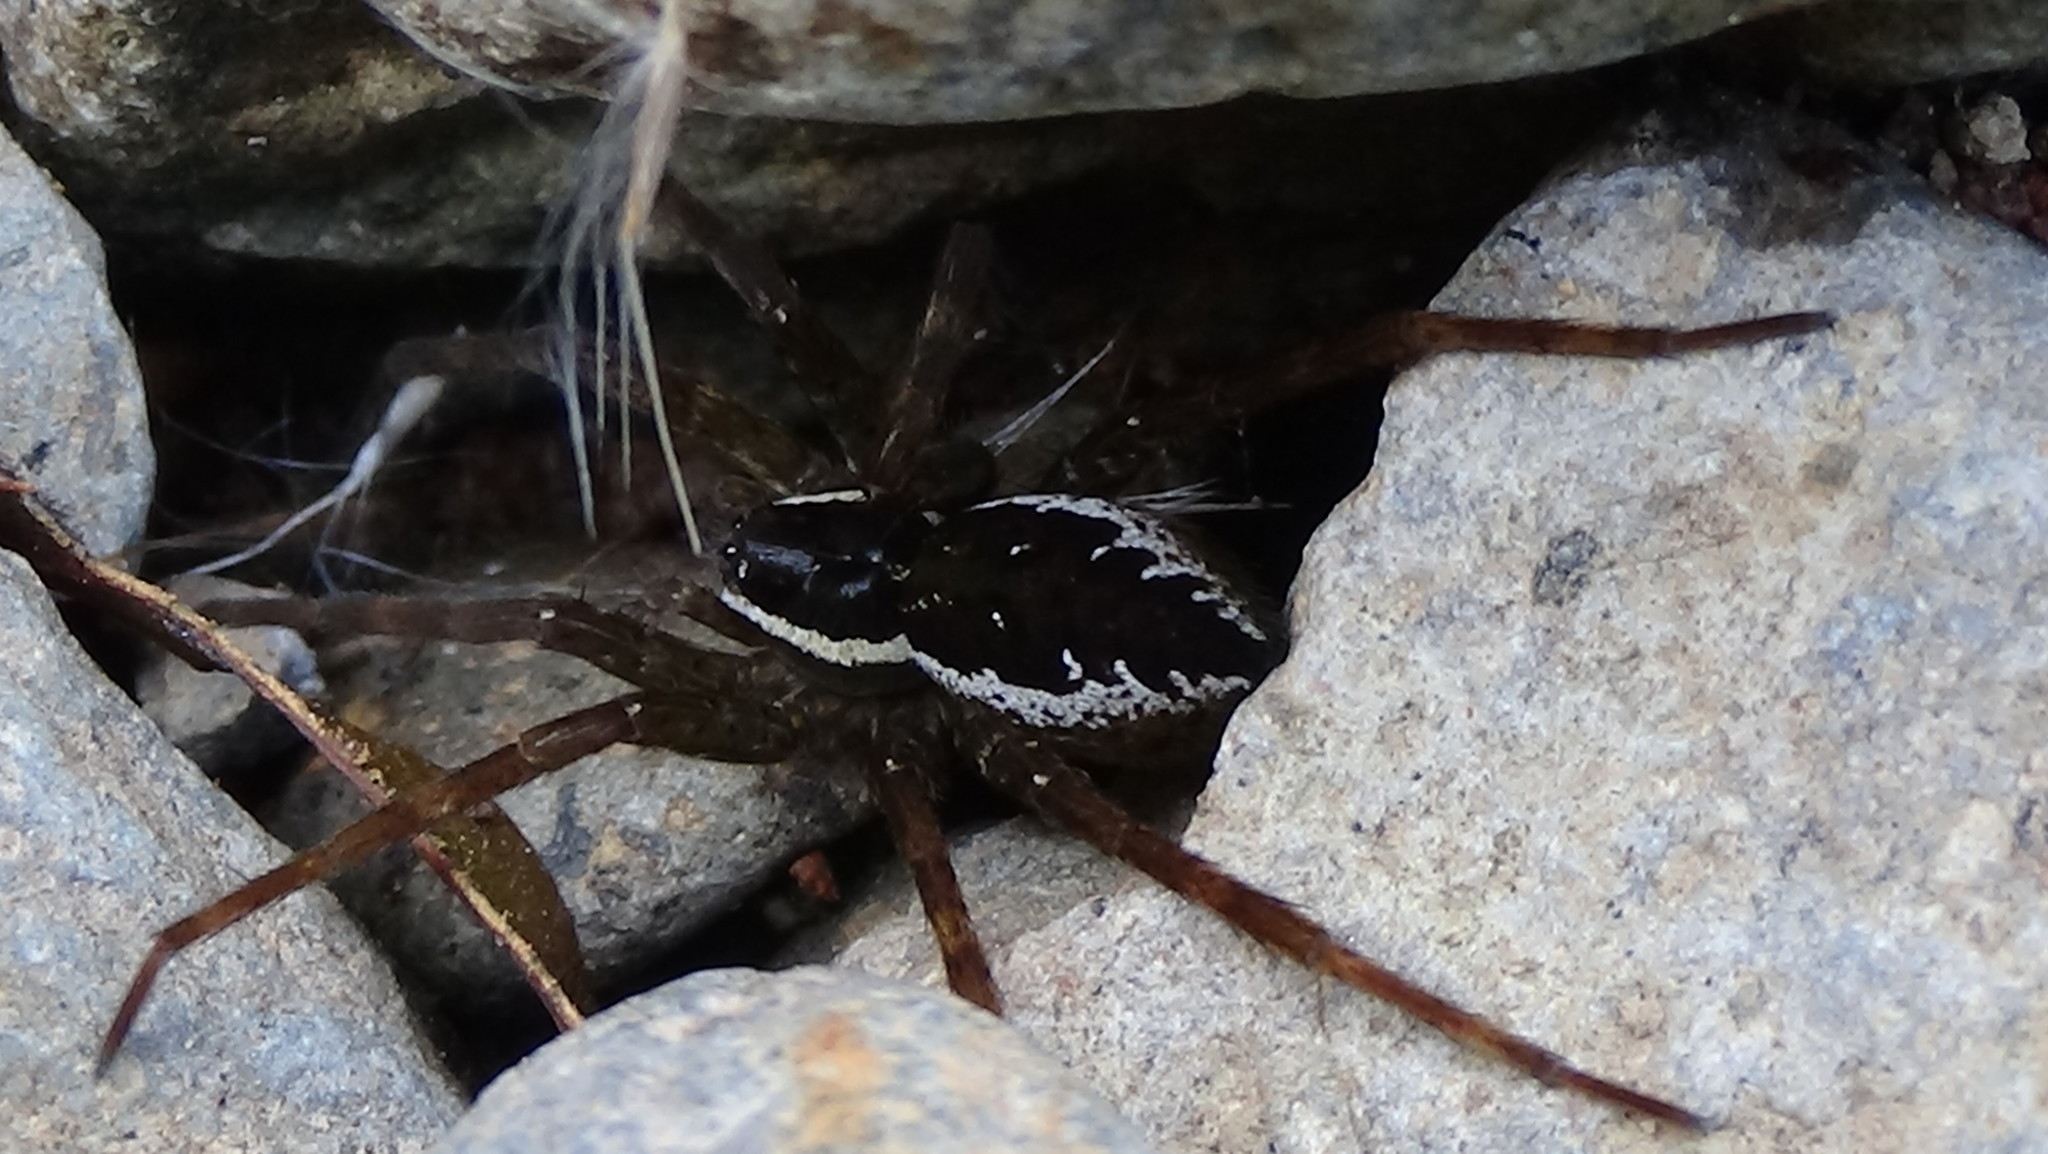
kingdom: Animalia
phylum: Arthropoda
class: Arachnida
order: Araneae
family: Pisauridae
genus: Dolomedes
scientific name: Dolomedes dondalei
